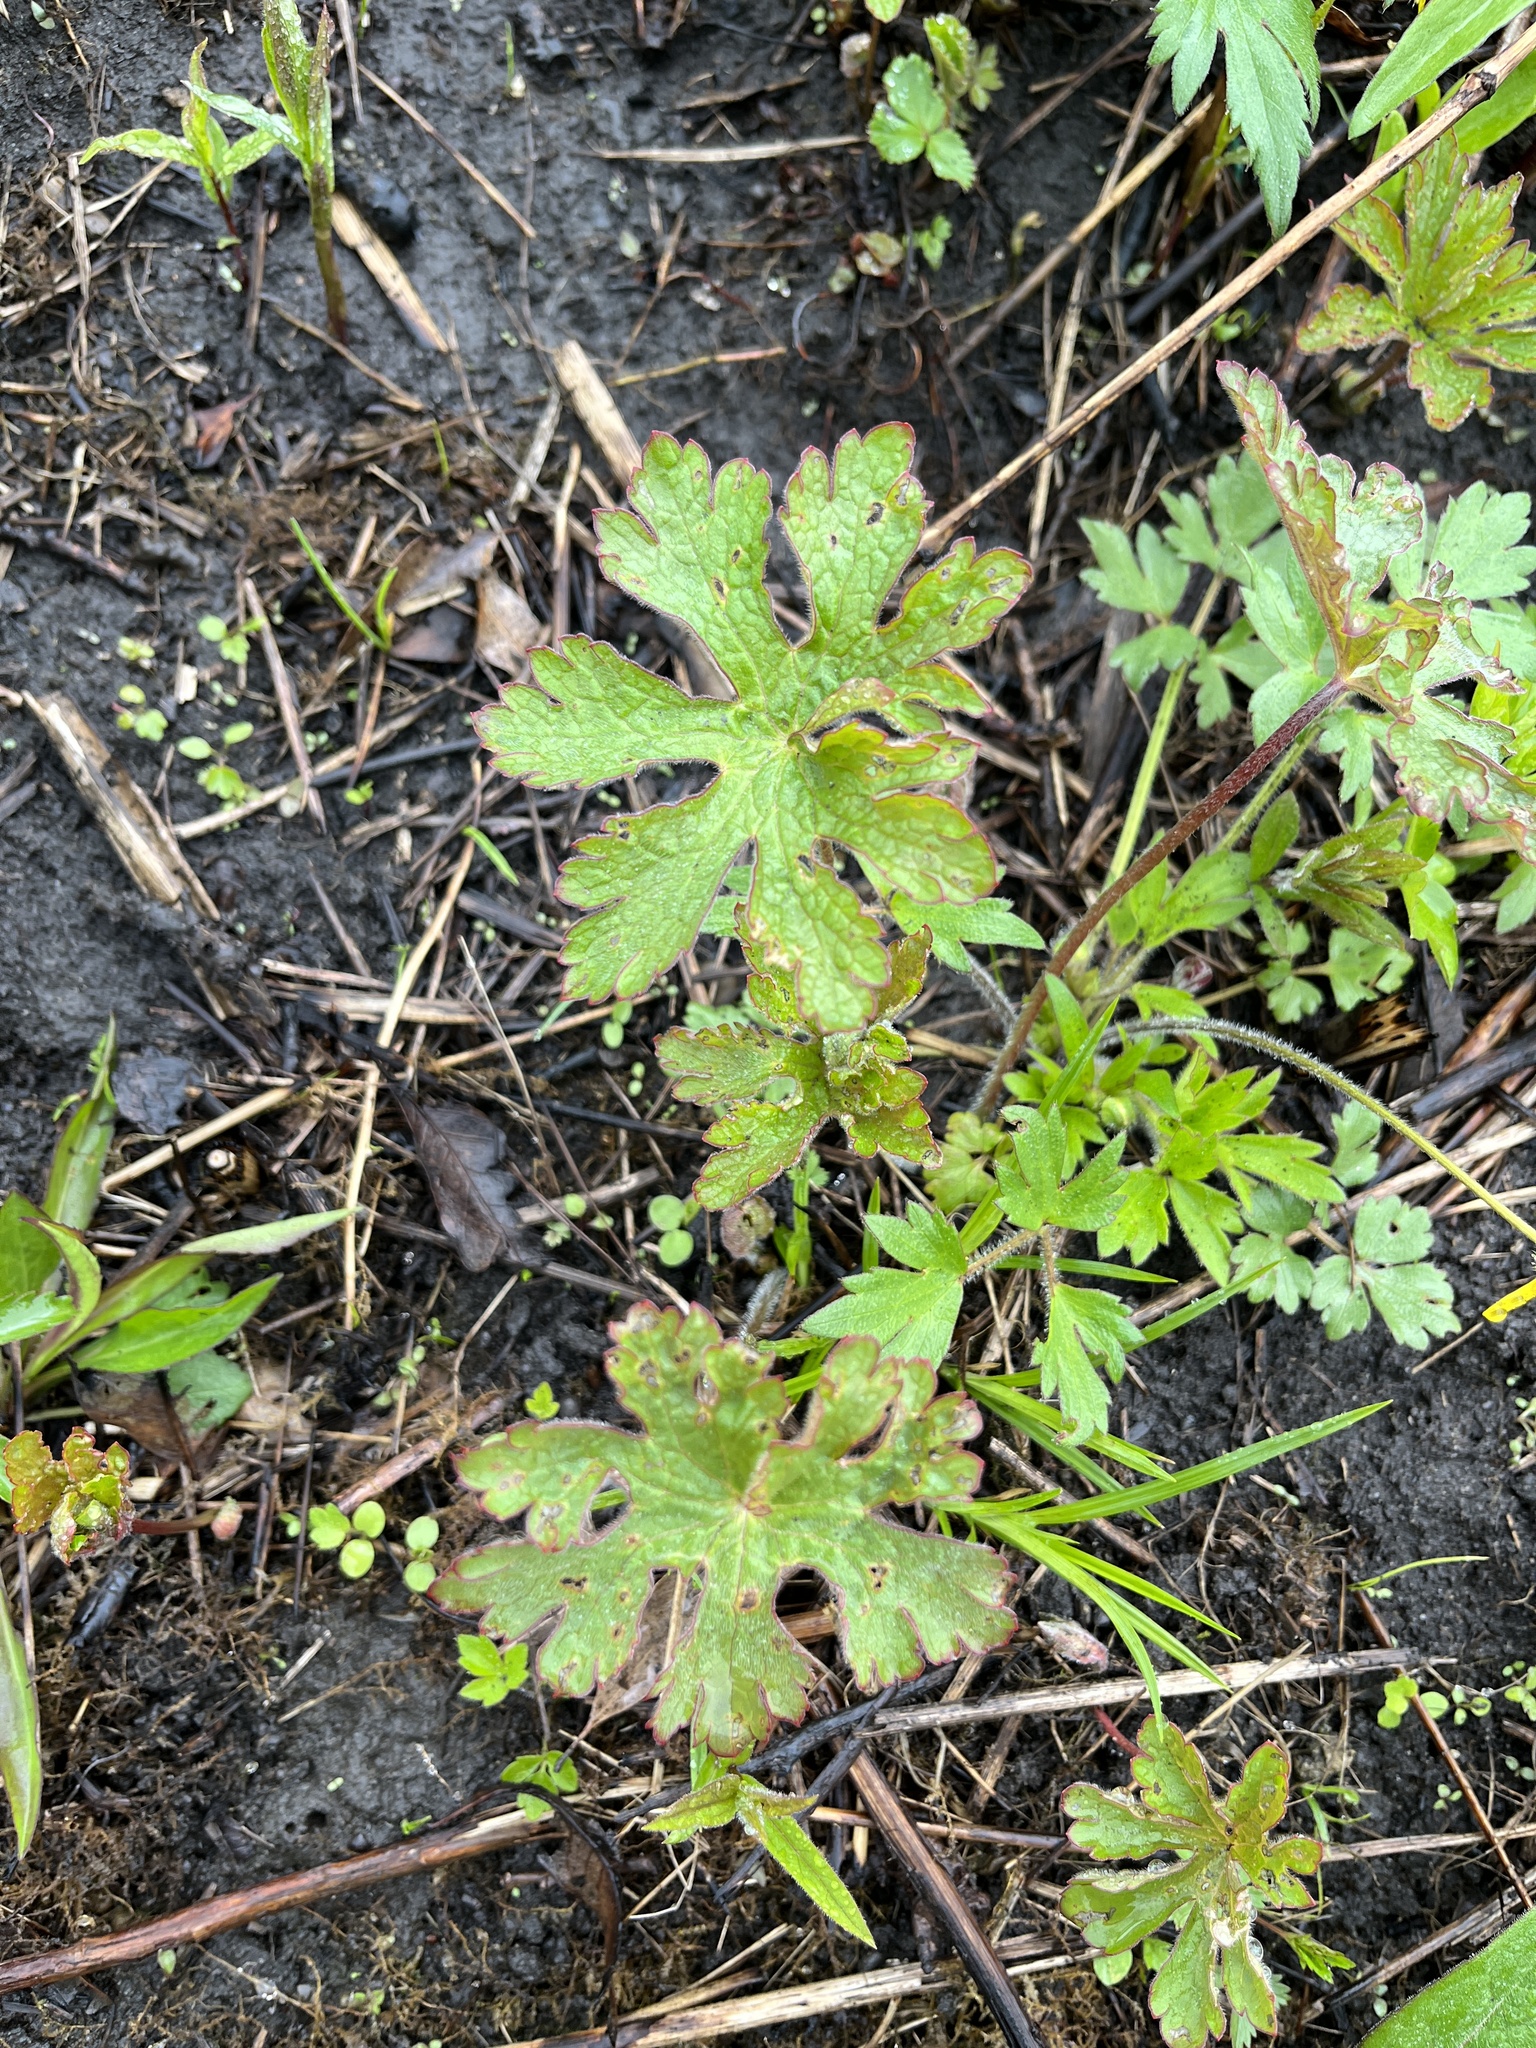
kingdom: Plantae
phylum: Tracheophyta
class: Magnoliopsida
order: Geraniales
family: Geraniaceae
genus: Geranium
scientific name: Geranium maculatum
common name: Spotted geranium
